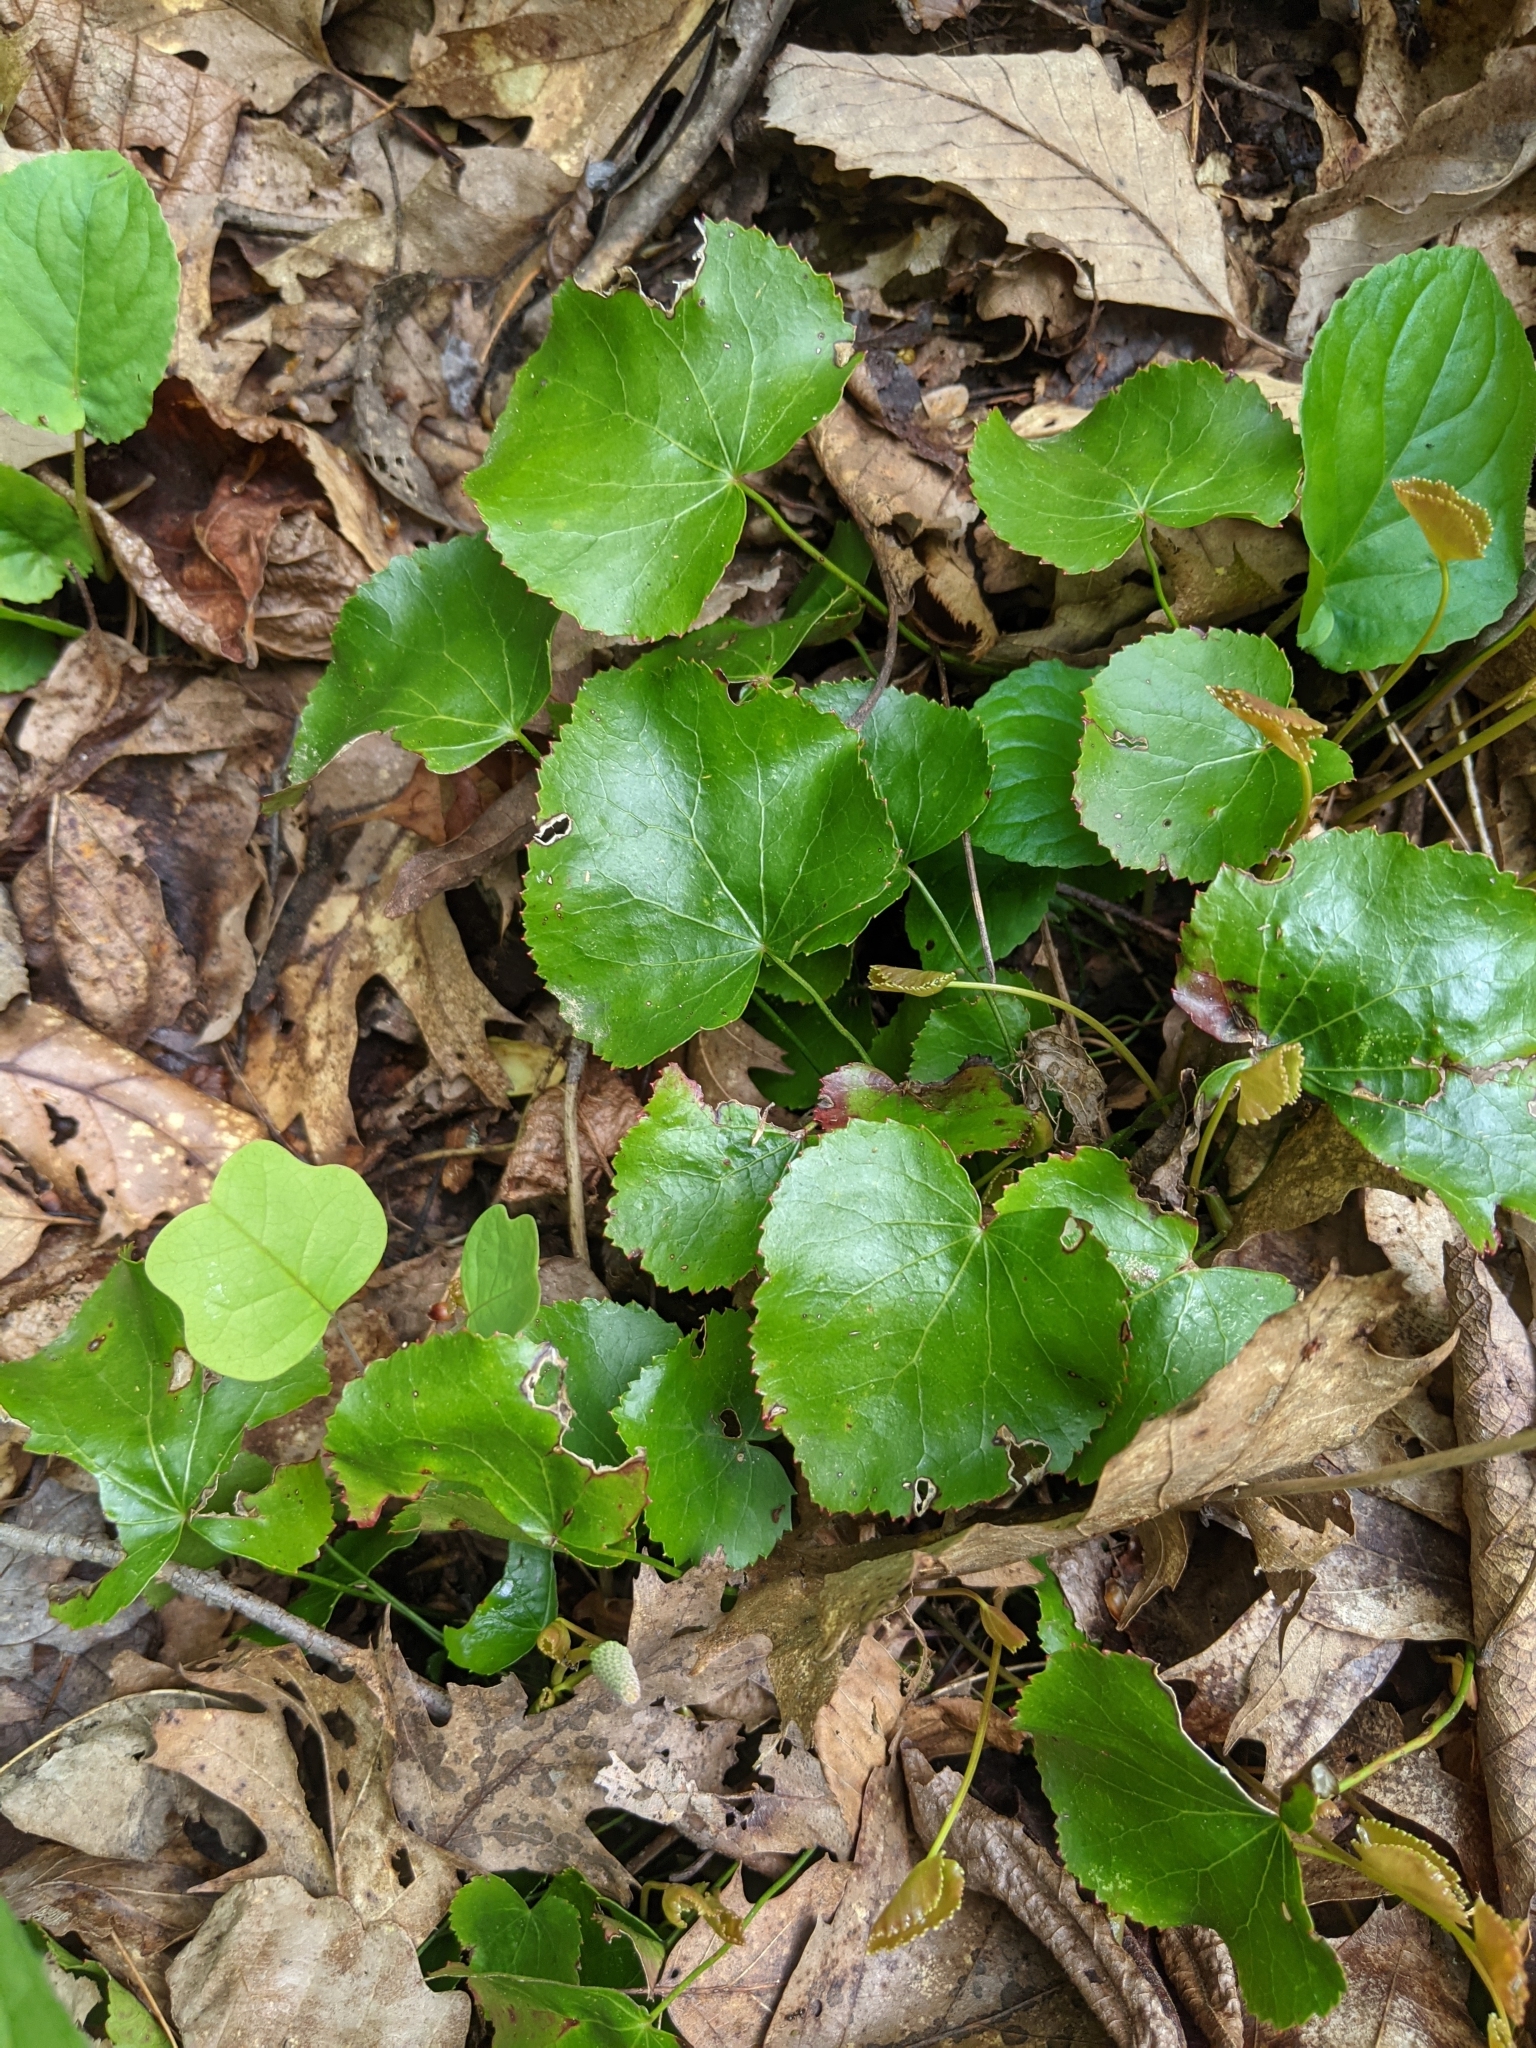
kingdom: Plantae
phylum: Tracheophyta
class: Magnoliopsida
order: Ericales
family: Diapensiaceae
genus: Galax
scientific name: Galax urceolata
